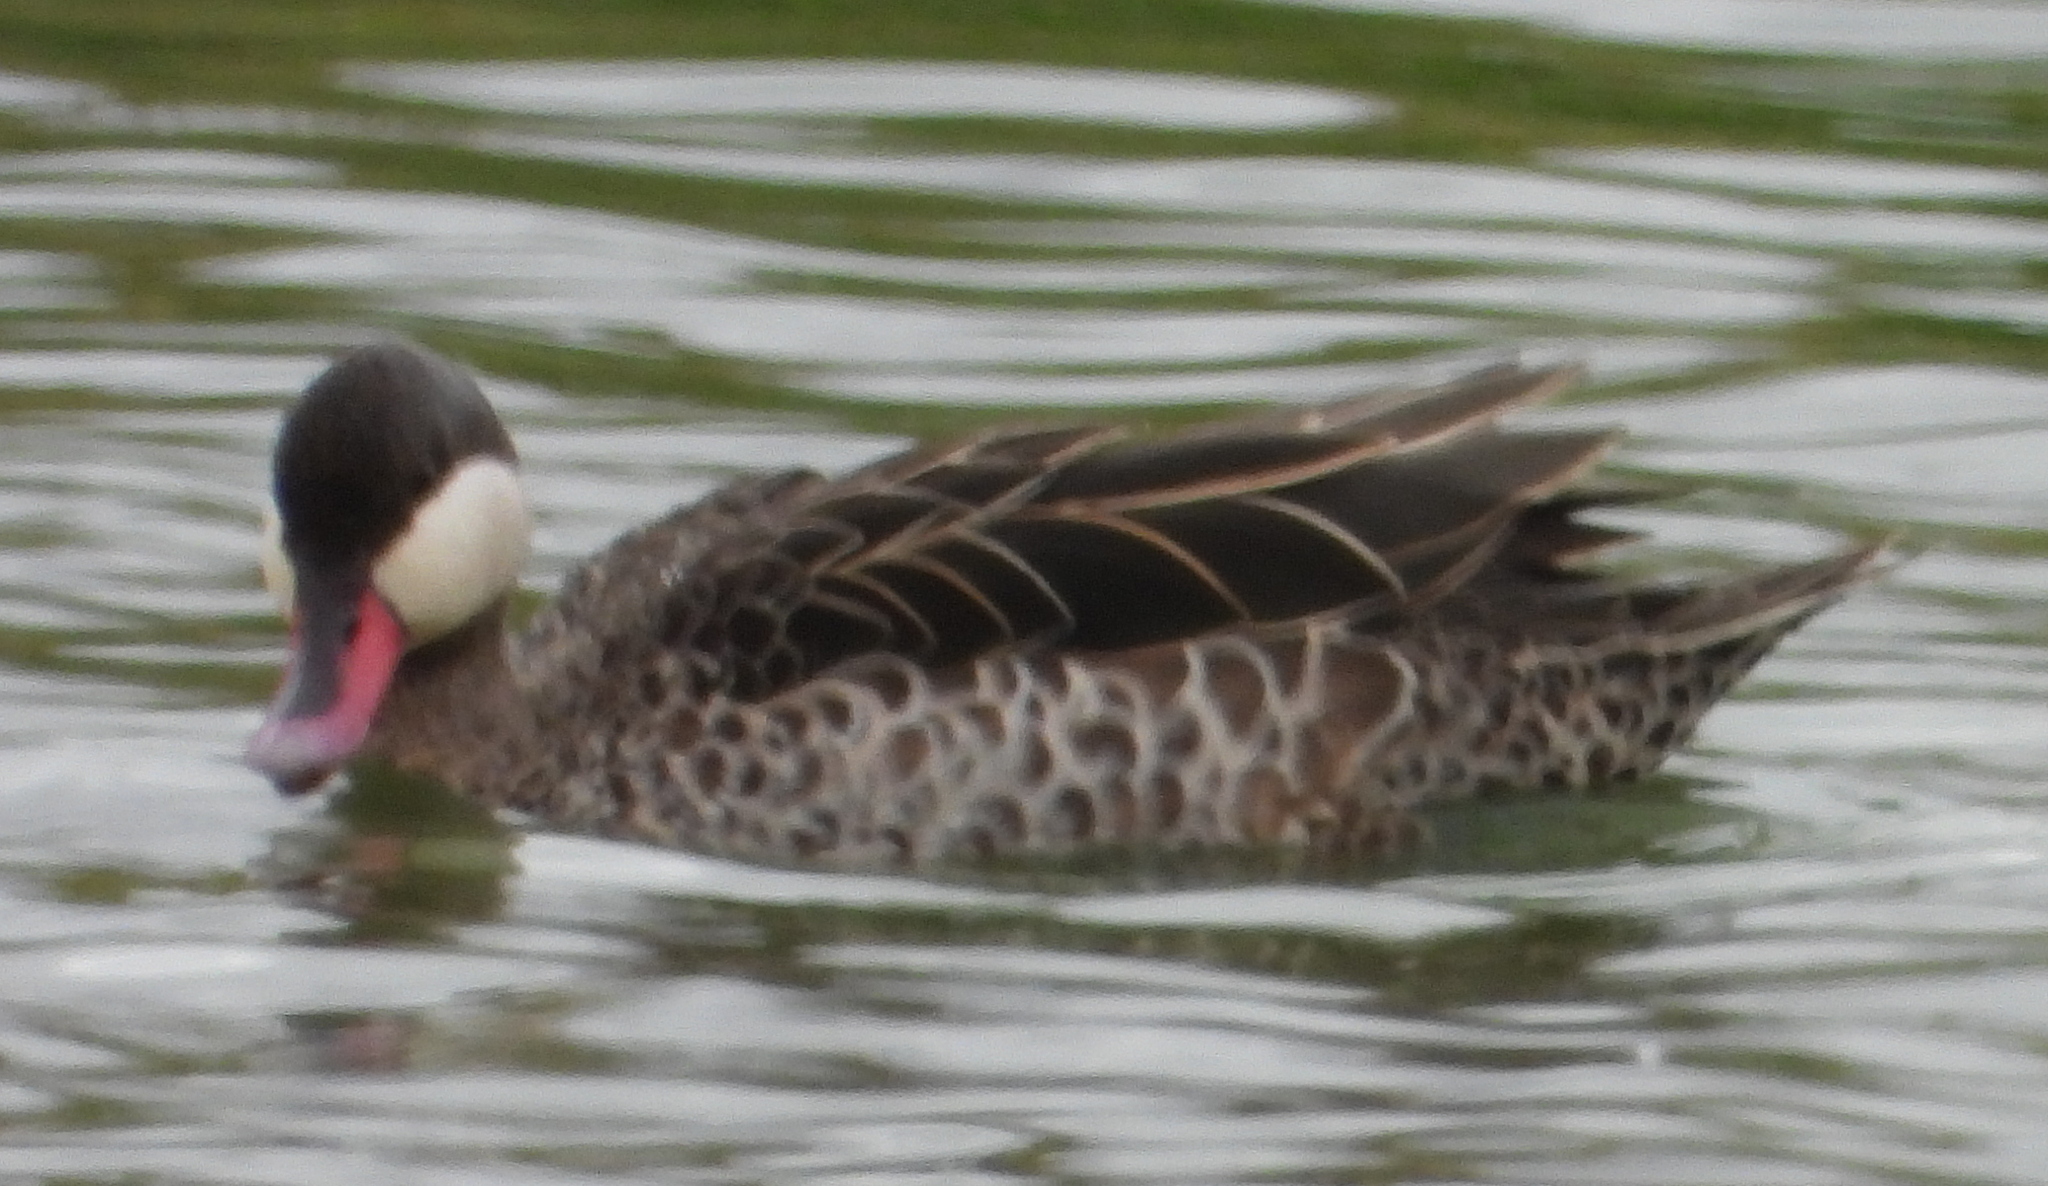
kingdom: Animalia
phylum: Chordata
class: Aves
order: Anseriformes
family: Anatidae
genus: Anas
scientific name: Anas erythrorhyncha
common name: Red-billed teal
